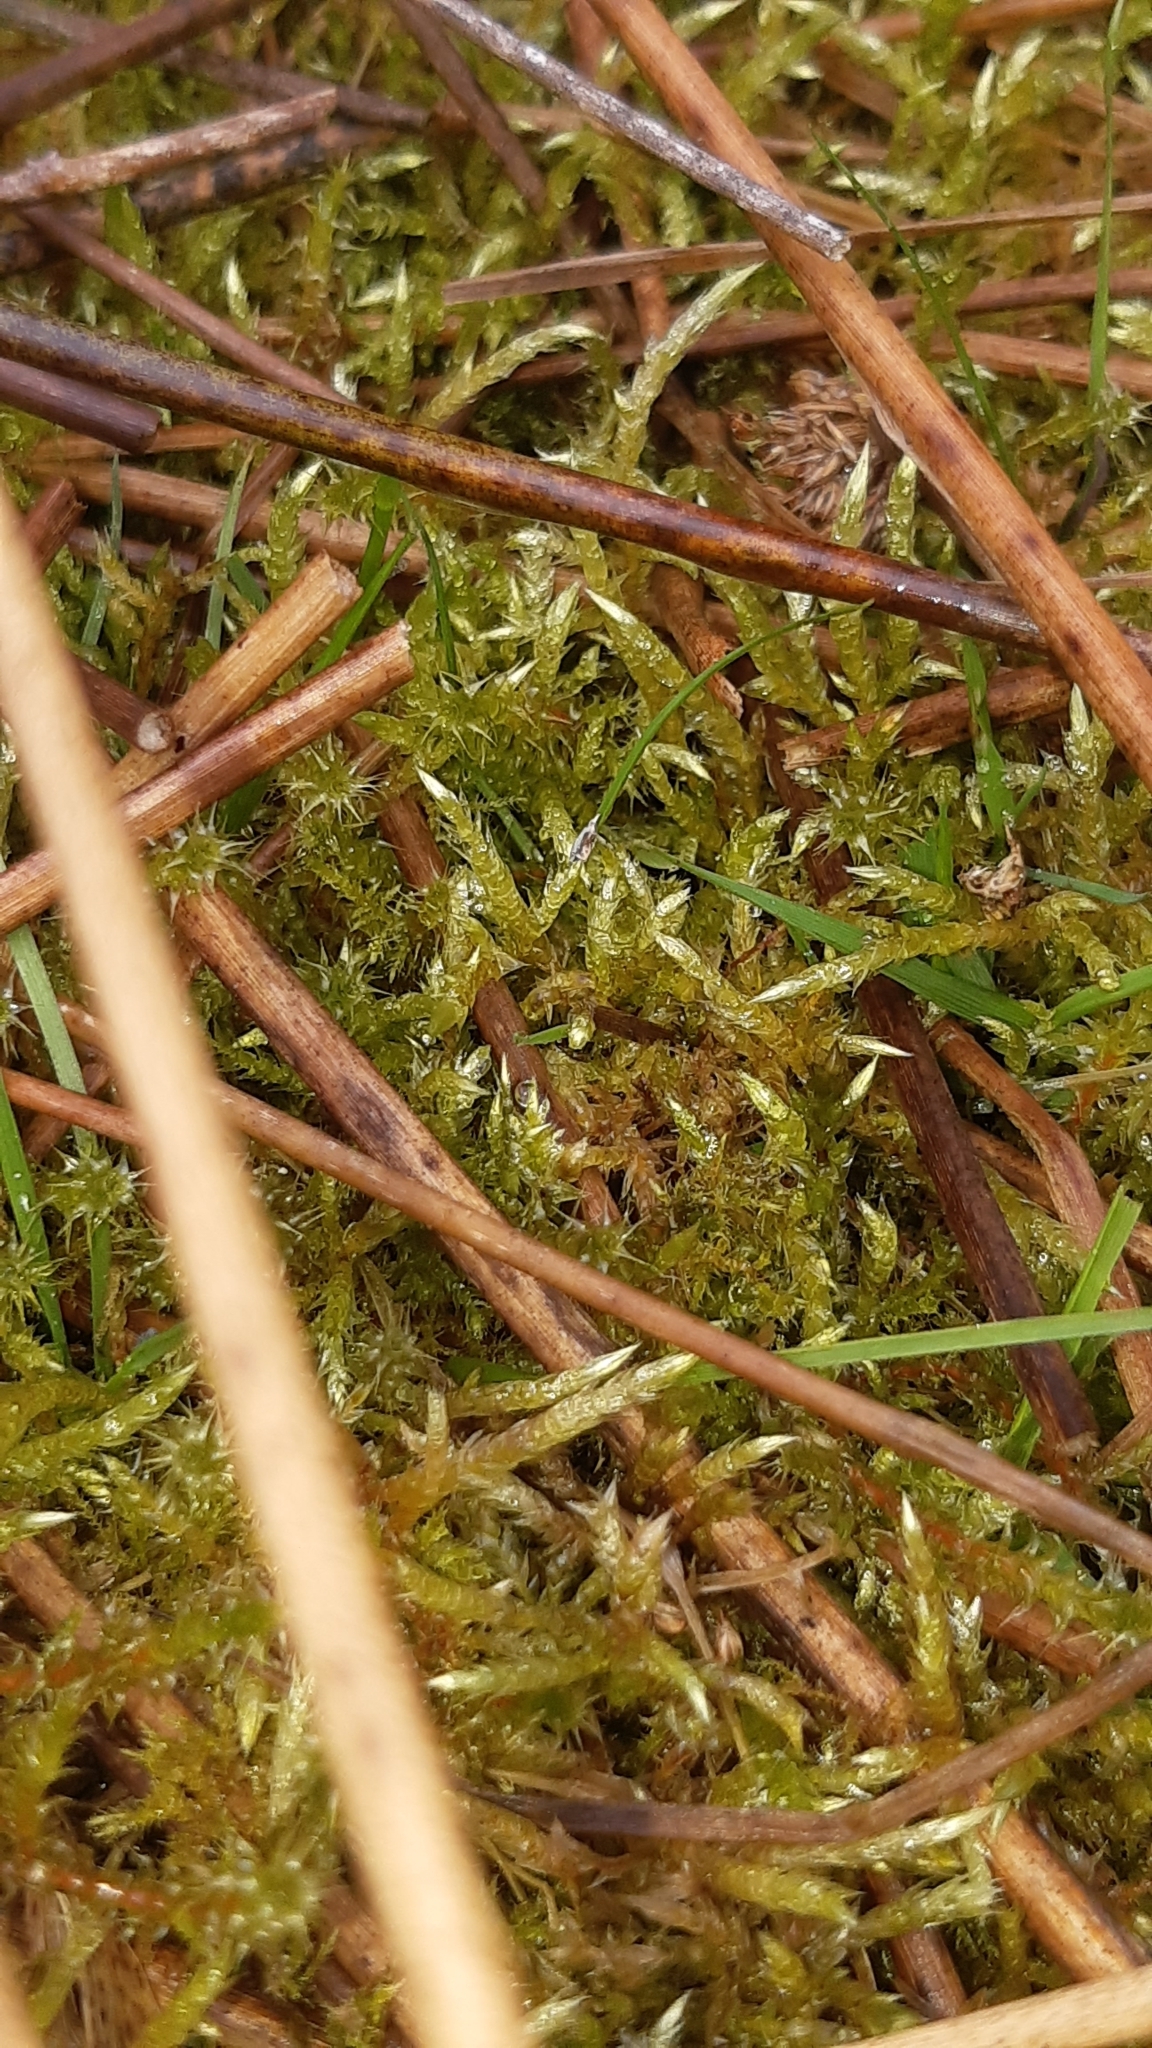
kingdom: Plantae
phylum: Bryophyta
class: Bryopsida
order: Hypnales
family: Hylocomiaceae
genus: Rhytidiadelphus
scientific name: Rhytidiadelphus squarrosus
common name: Springy turf-moss
